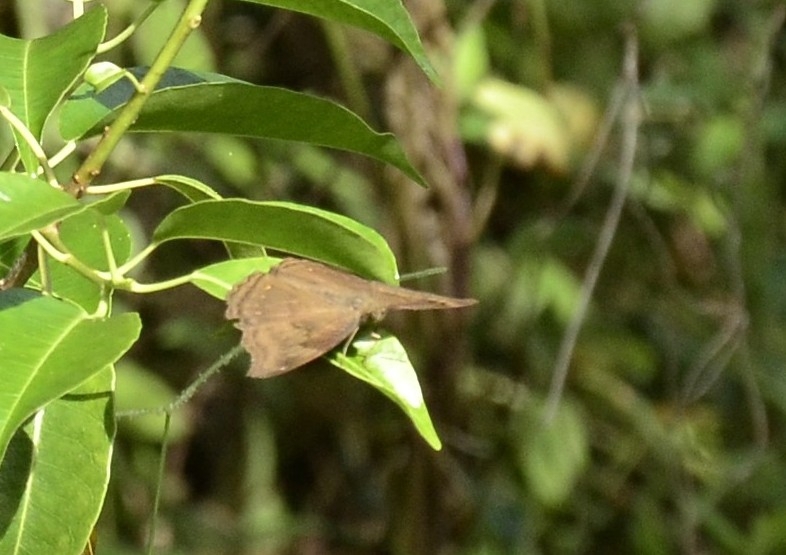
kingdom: Animalia
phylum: Arthropoda
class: Insecta
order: Lepidoptera
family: Nymphalidae
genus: Junonia
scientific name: Junonia iphita
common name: Chocolate pansy
